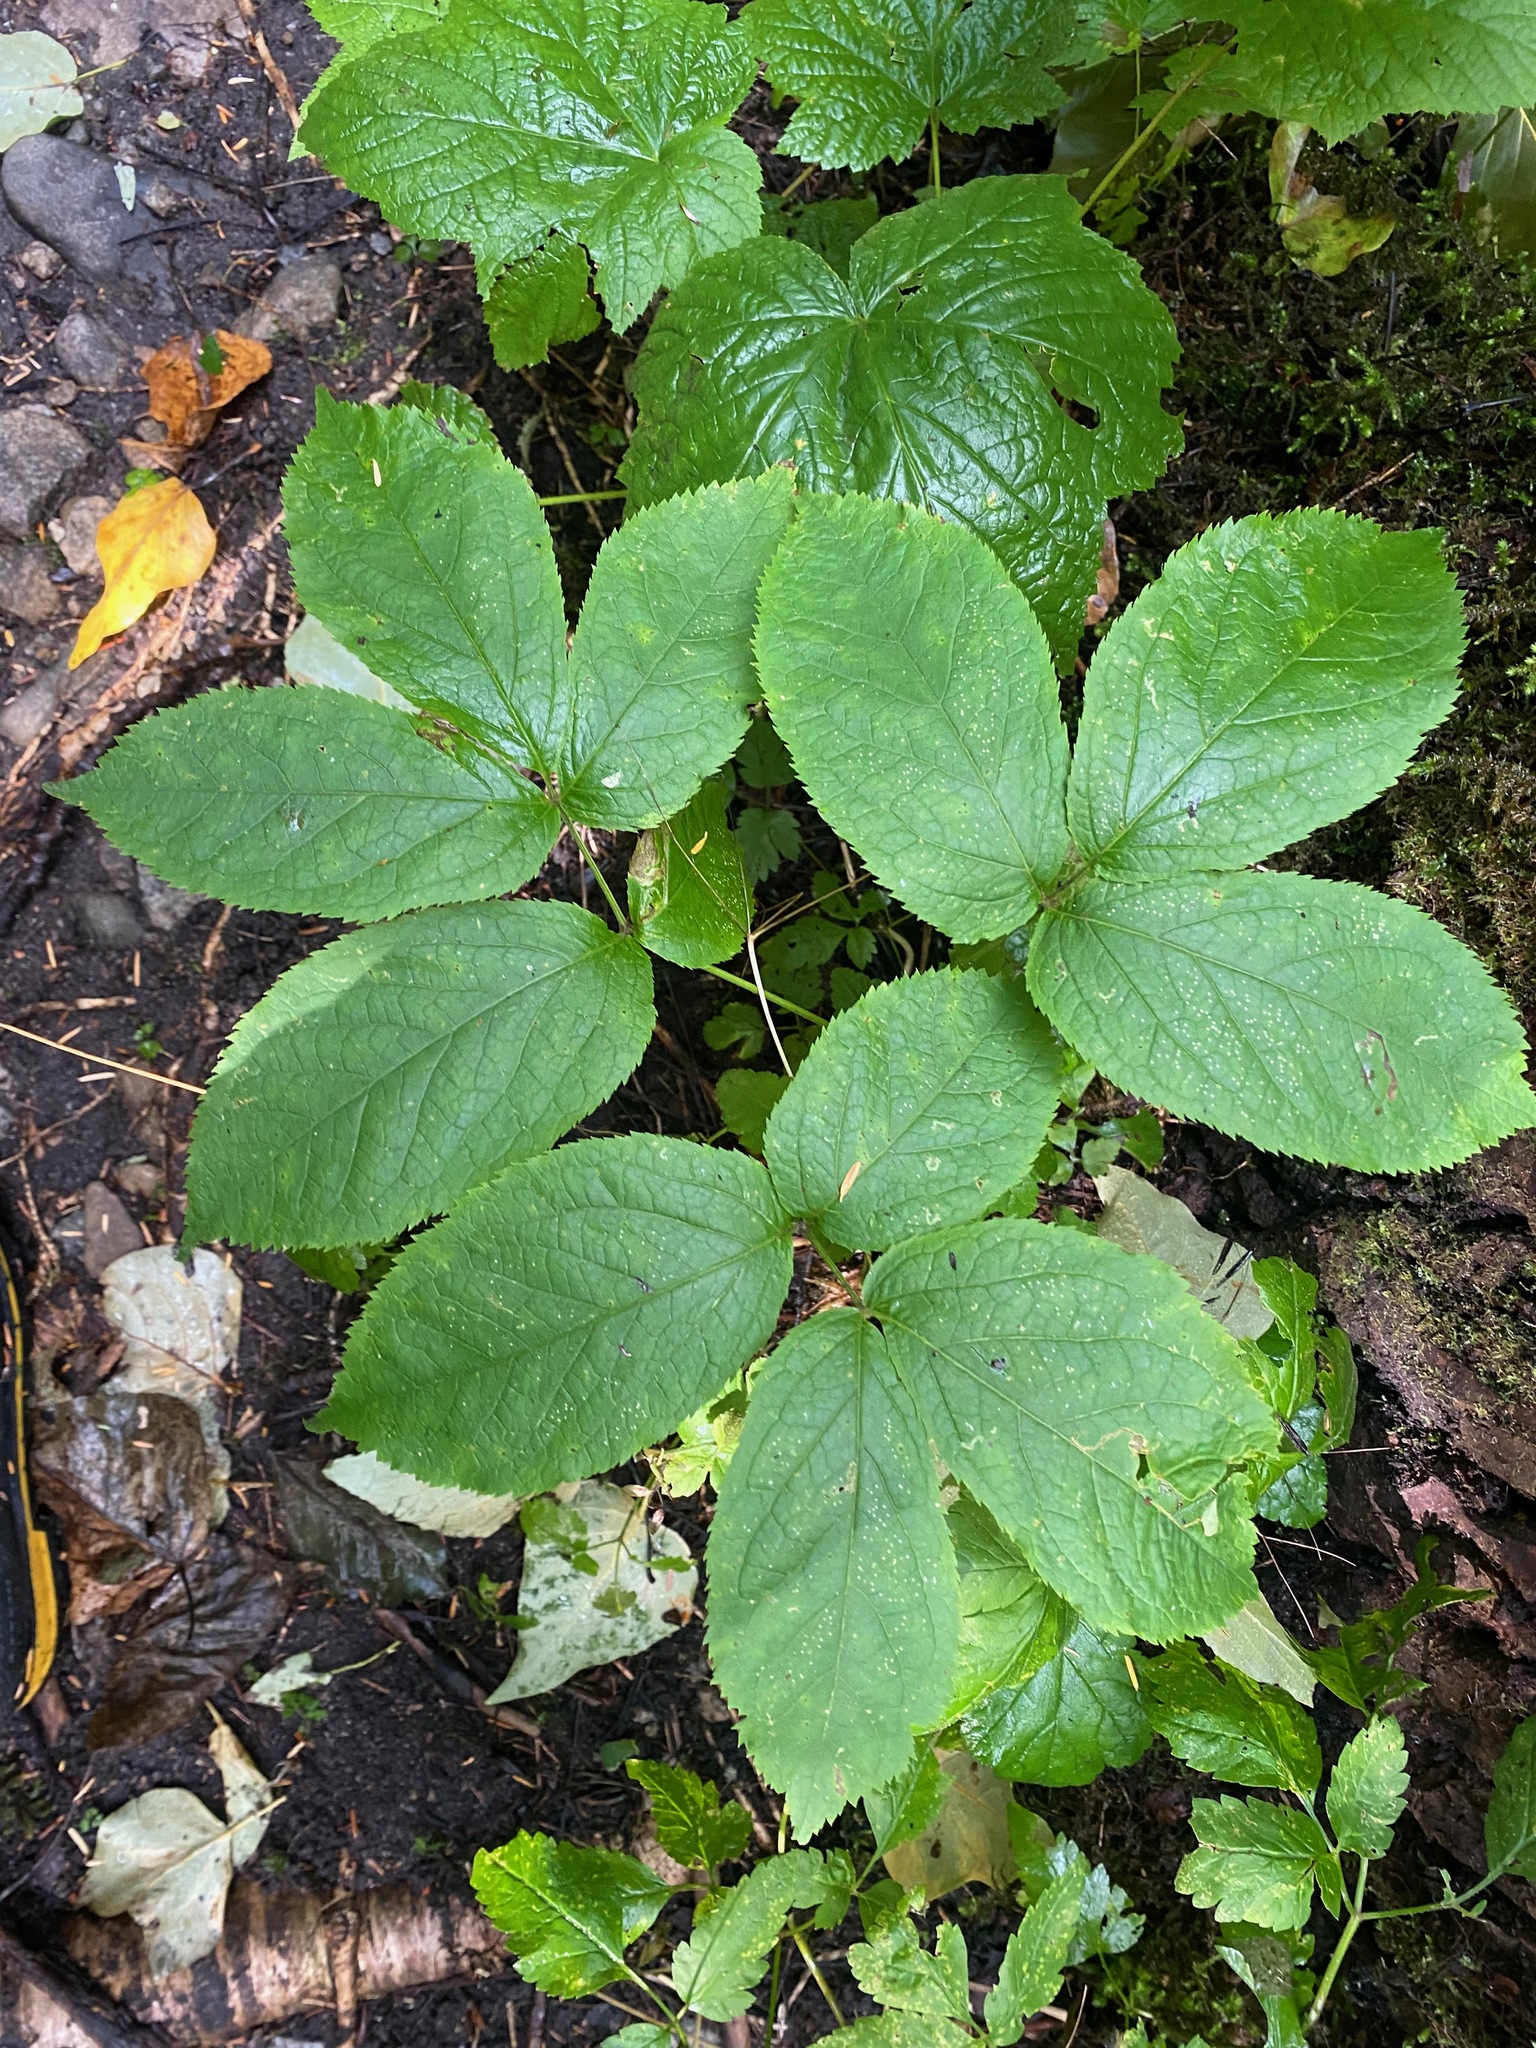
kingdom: Plantae
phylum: Tracheophyta
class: Magnoliopsida
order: Apiales
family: Araliaceae
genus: Aralia
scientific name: Aralia nudicaulis
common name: Wild sarsaparilla
